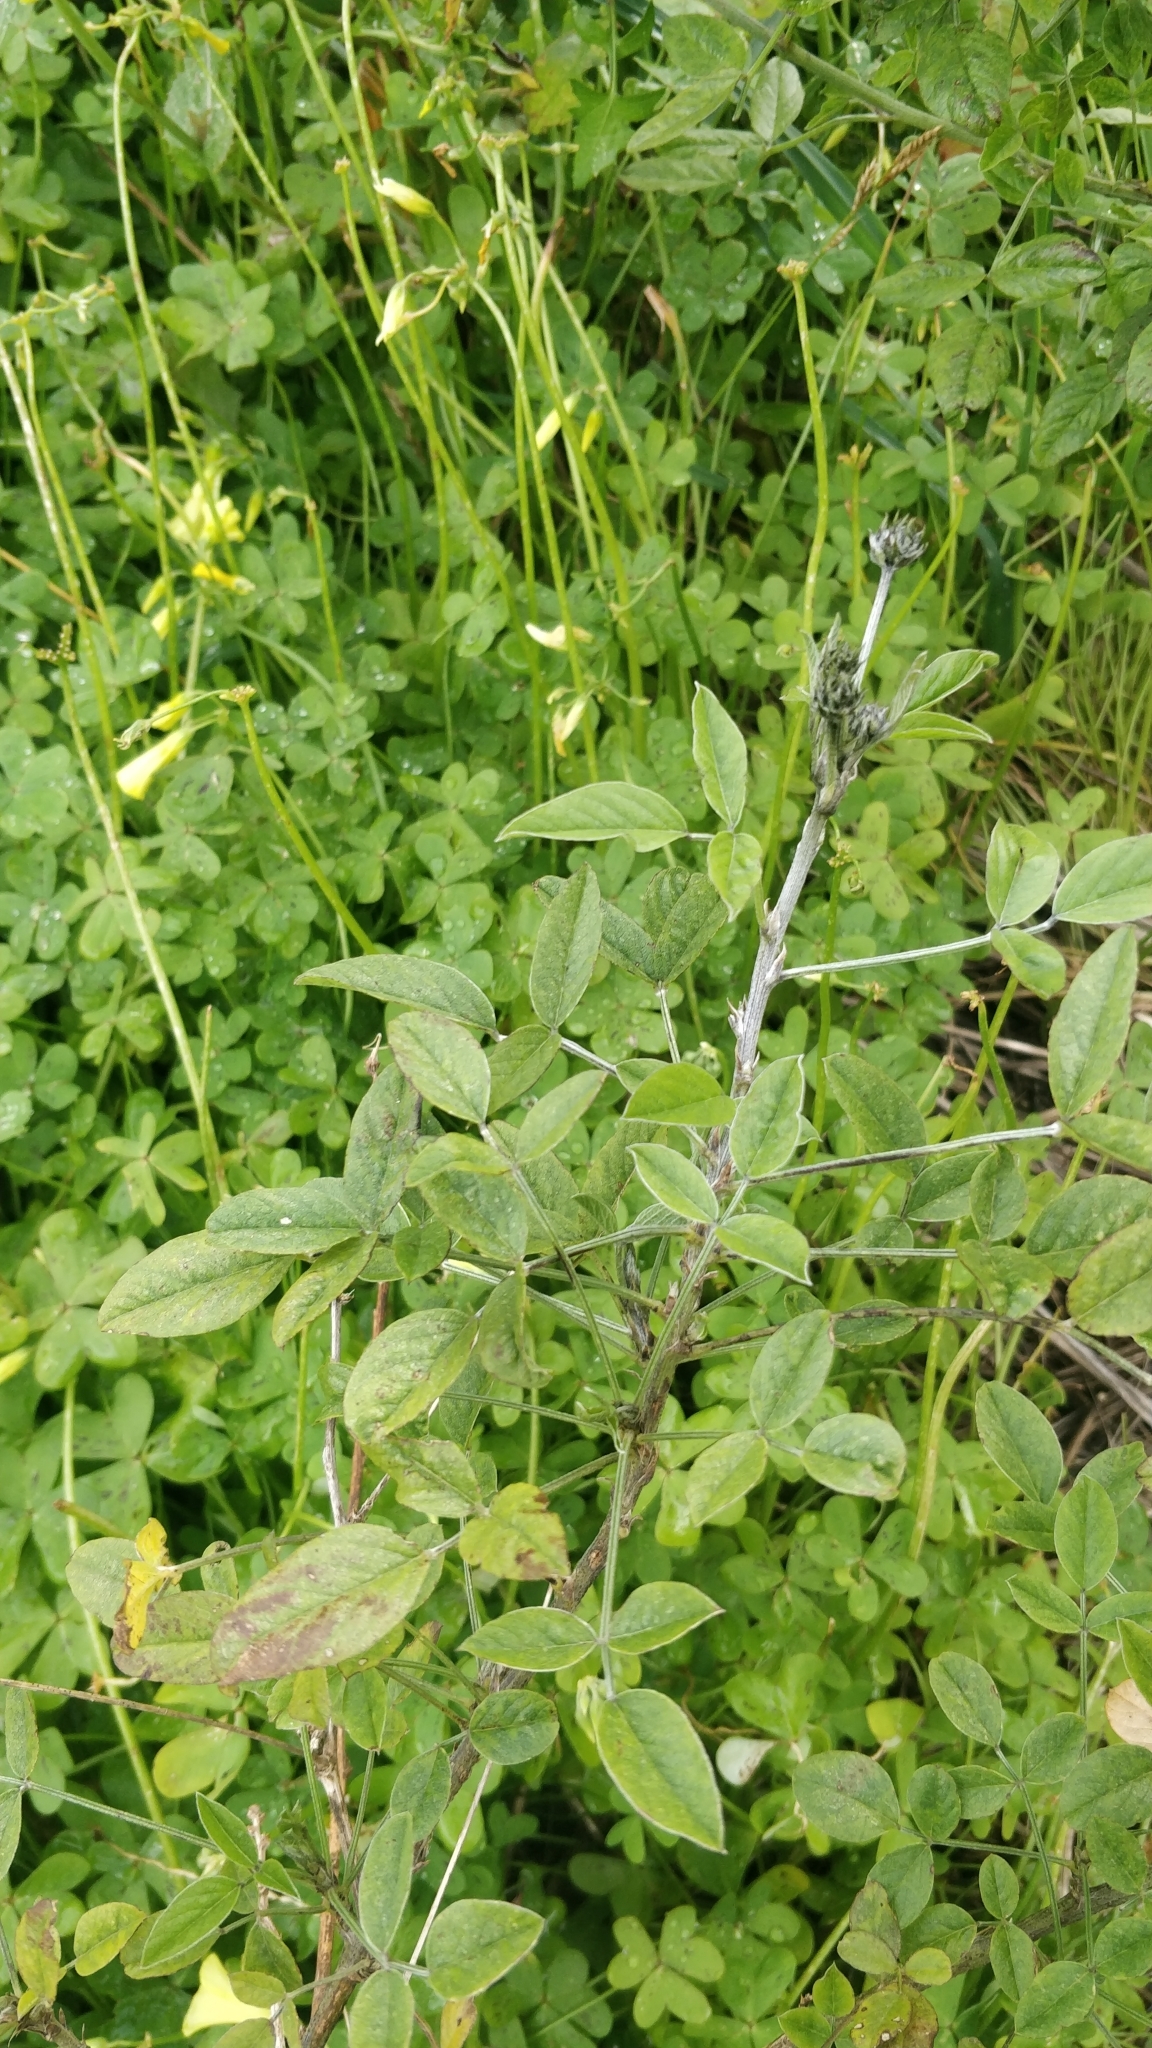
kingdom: Plantae
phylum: Tracheophyta
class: Magnoliopsida
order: Fabales
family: Fabaceae
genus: Bituminaria
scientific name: Bituminaria bituminosa
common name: Arabian pea
